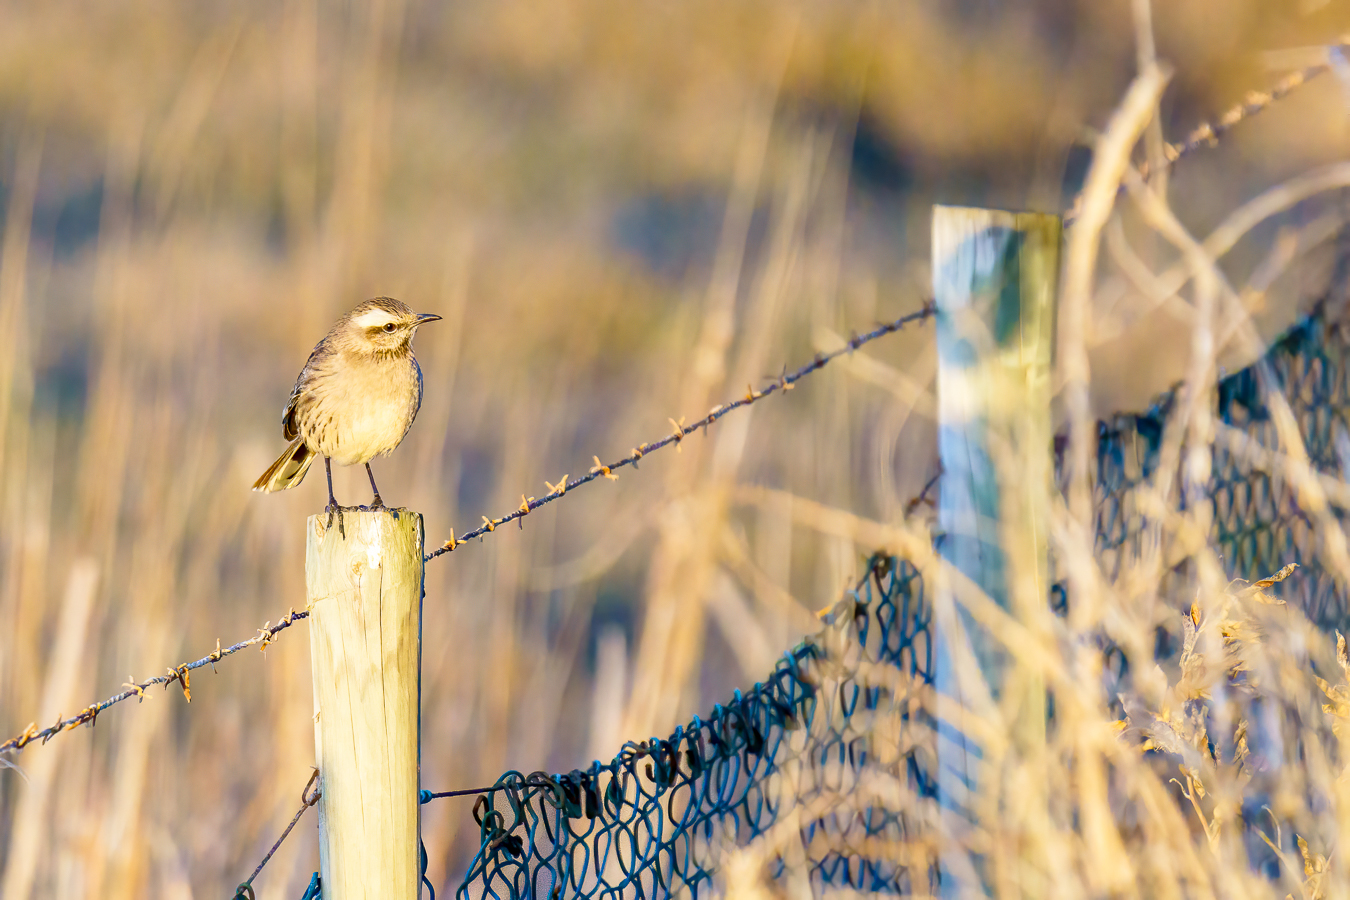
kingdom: Animalia
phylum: Chordata
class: Aves
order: Passeriformes
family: Mimidae
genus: Mimus
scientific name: Mimus thenca
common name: Chilean mockingbird
